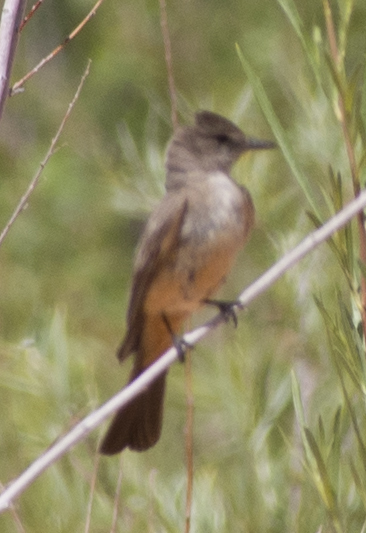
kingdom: Animalia
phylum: Chordata
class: Aves
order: Passeriformes
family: Tyrannidae
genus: Sayornis
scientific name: Sayornis saya
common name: Say's phoebe
